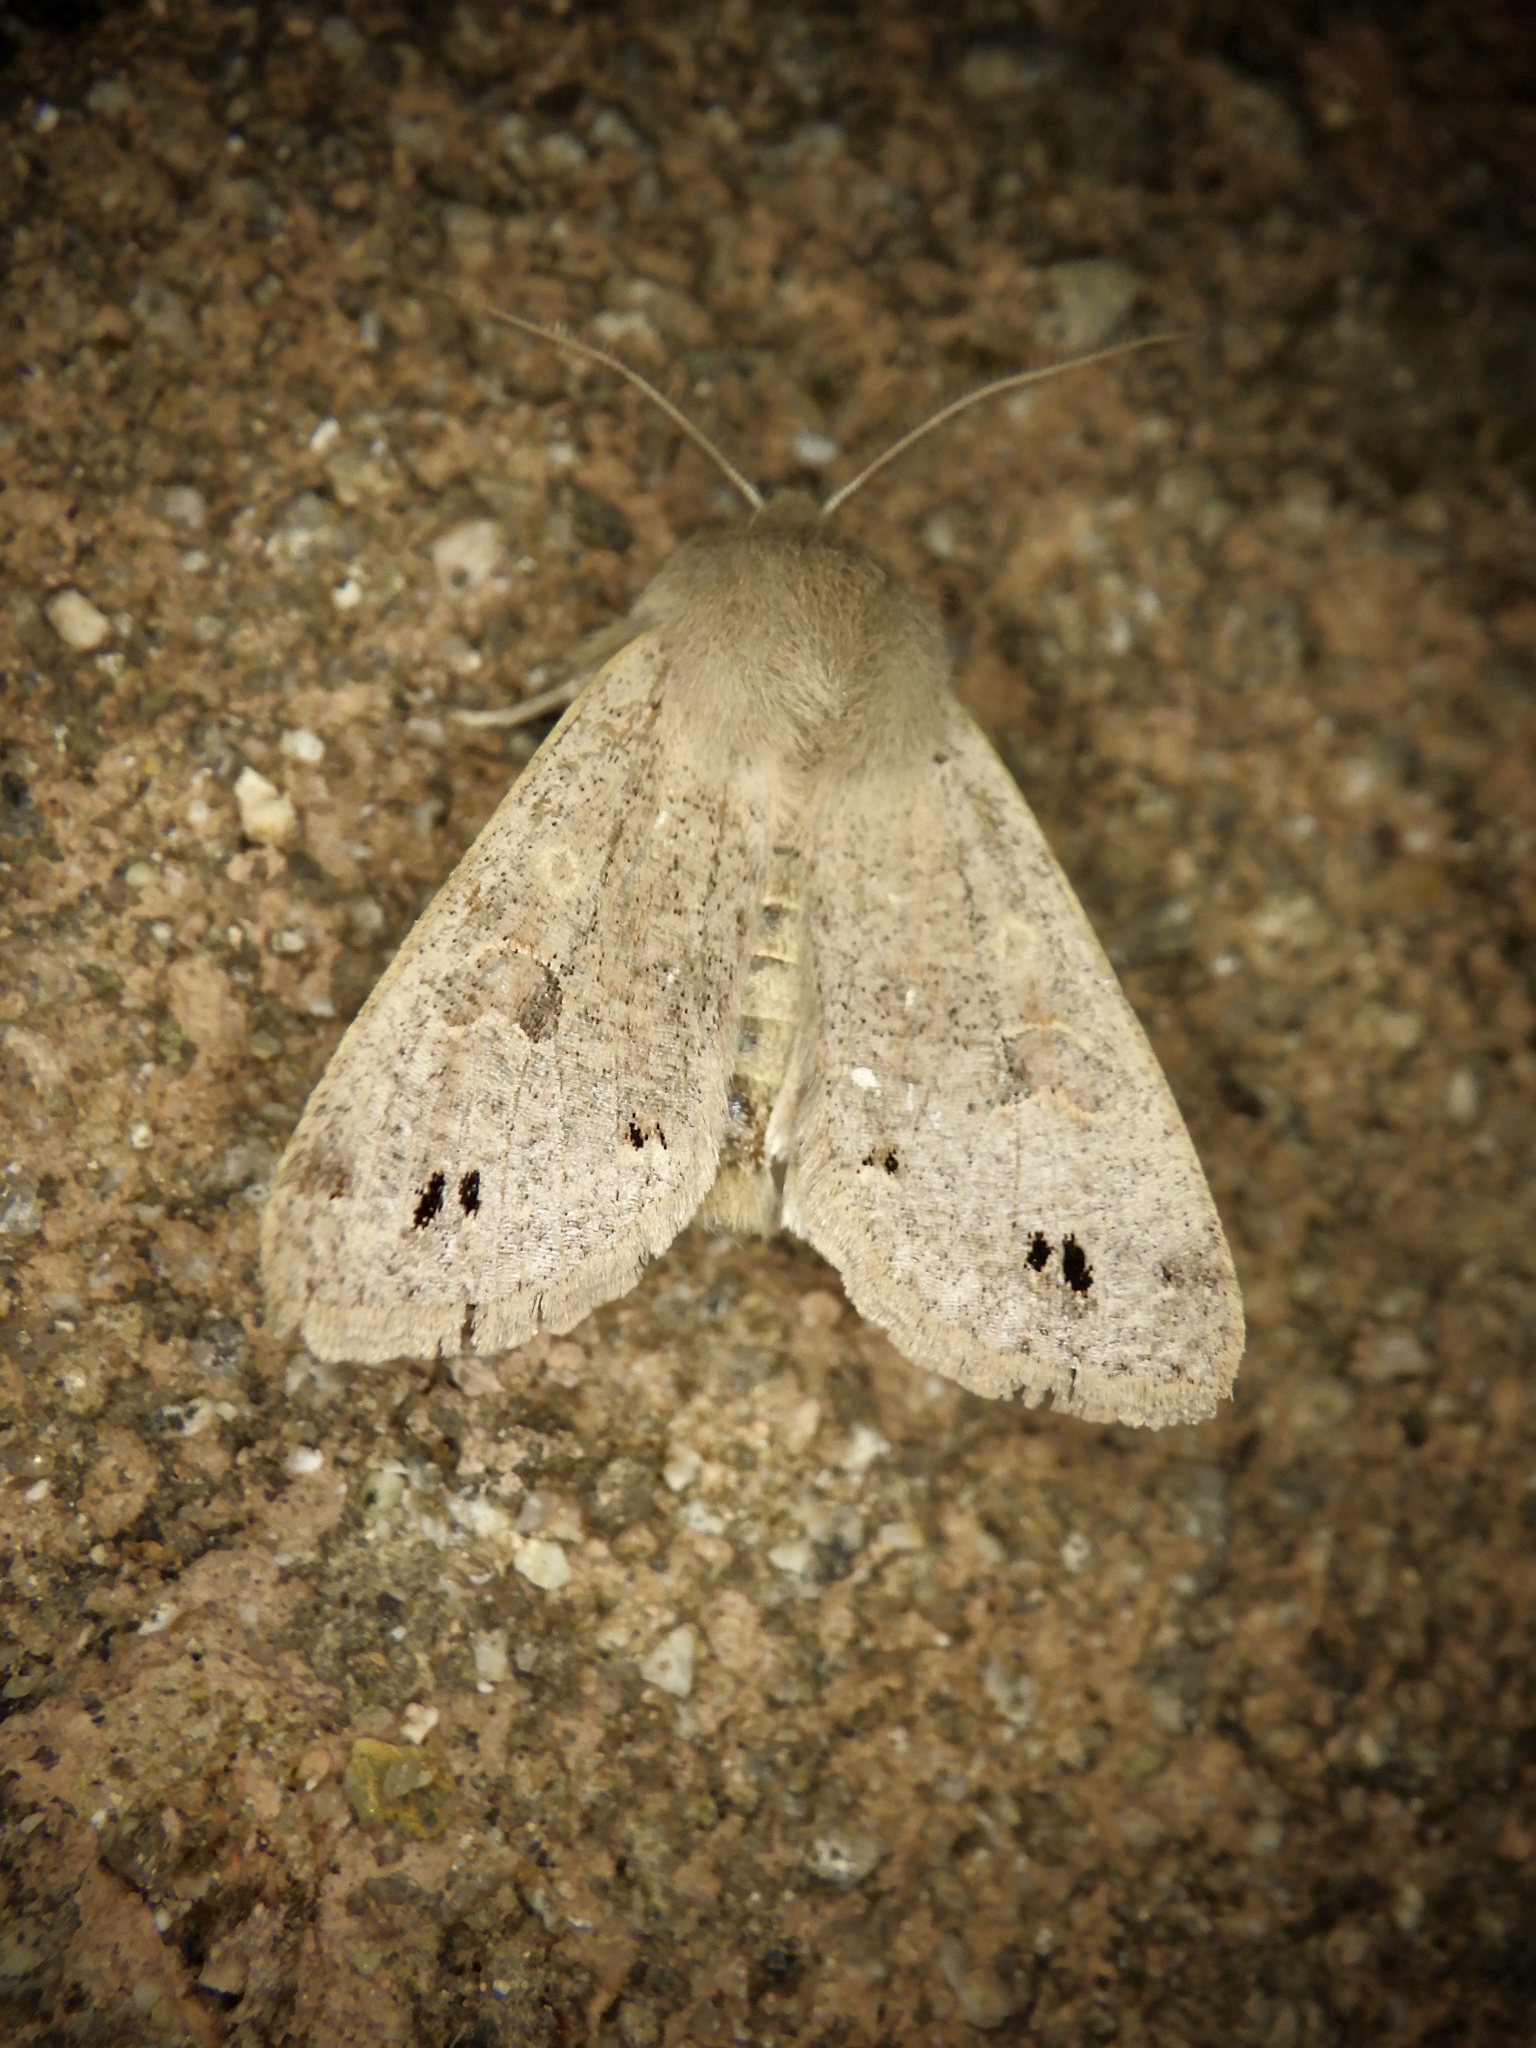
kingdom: Animalia
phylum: Arthropoda
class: Insecta
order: Lepidoptera
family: Noctuidae
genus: Anorthoa
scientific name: Anorthoa munda
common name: Twin-spotted quaker
